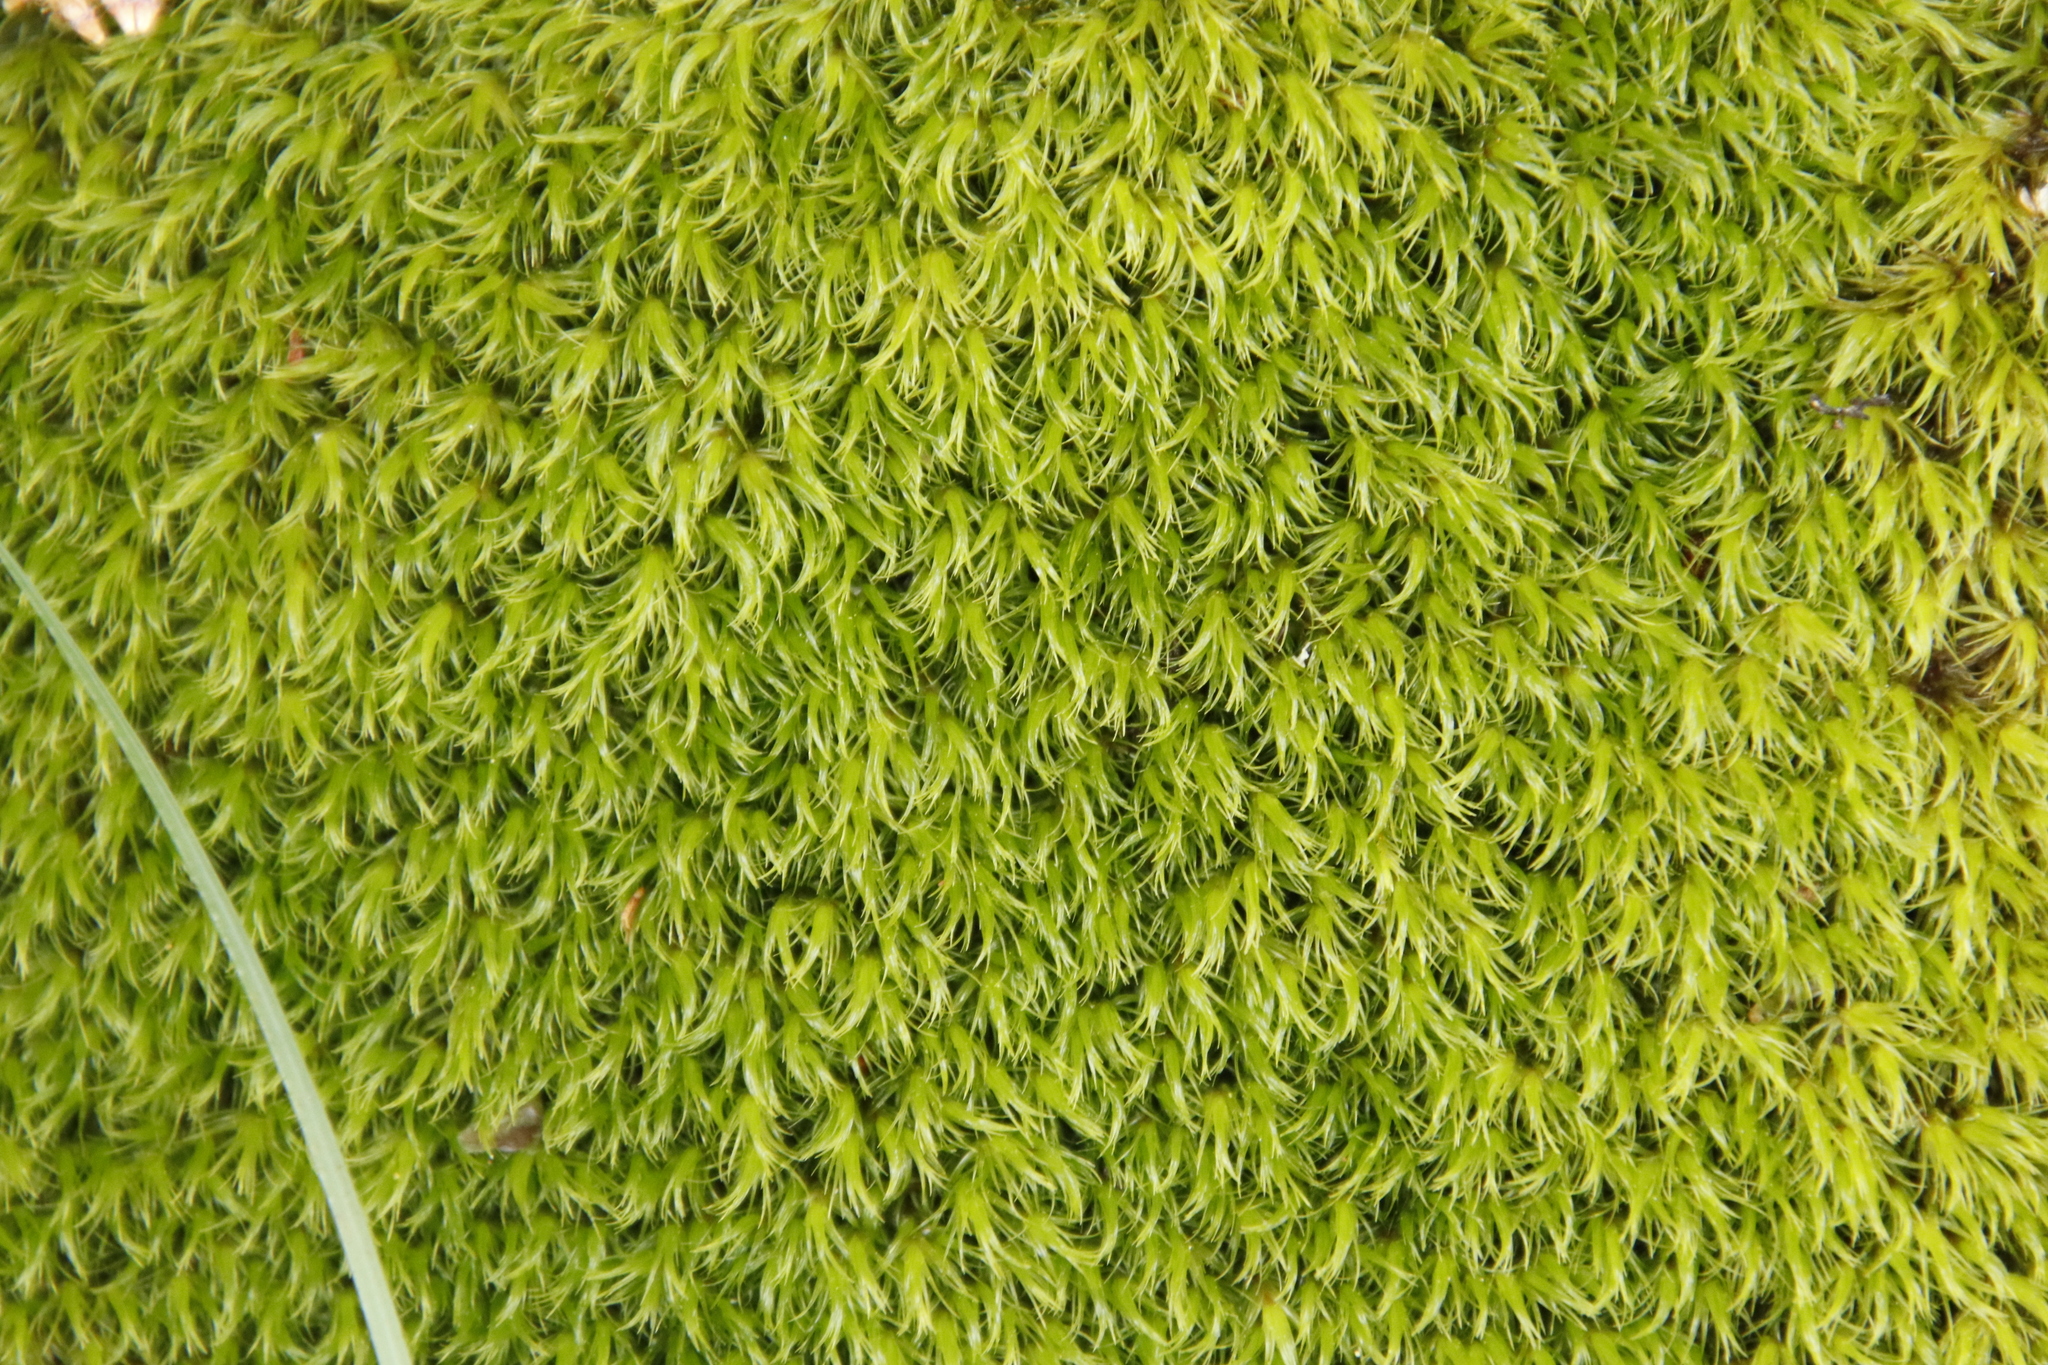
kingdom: Plantae
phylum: Bryophyta
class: Bryopsida
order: Dicranales
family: Dicranaceae
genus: Leucoloma
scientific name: Leucoloma sprengelianum
